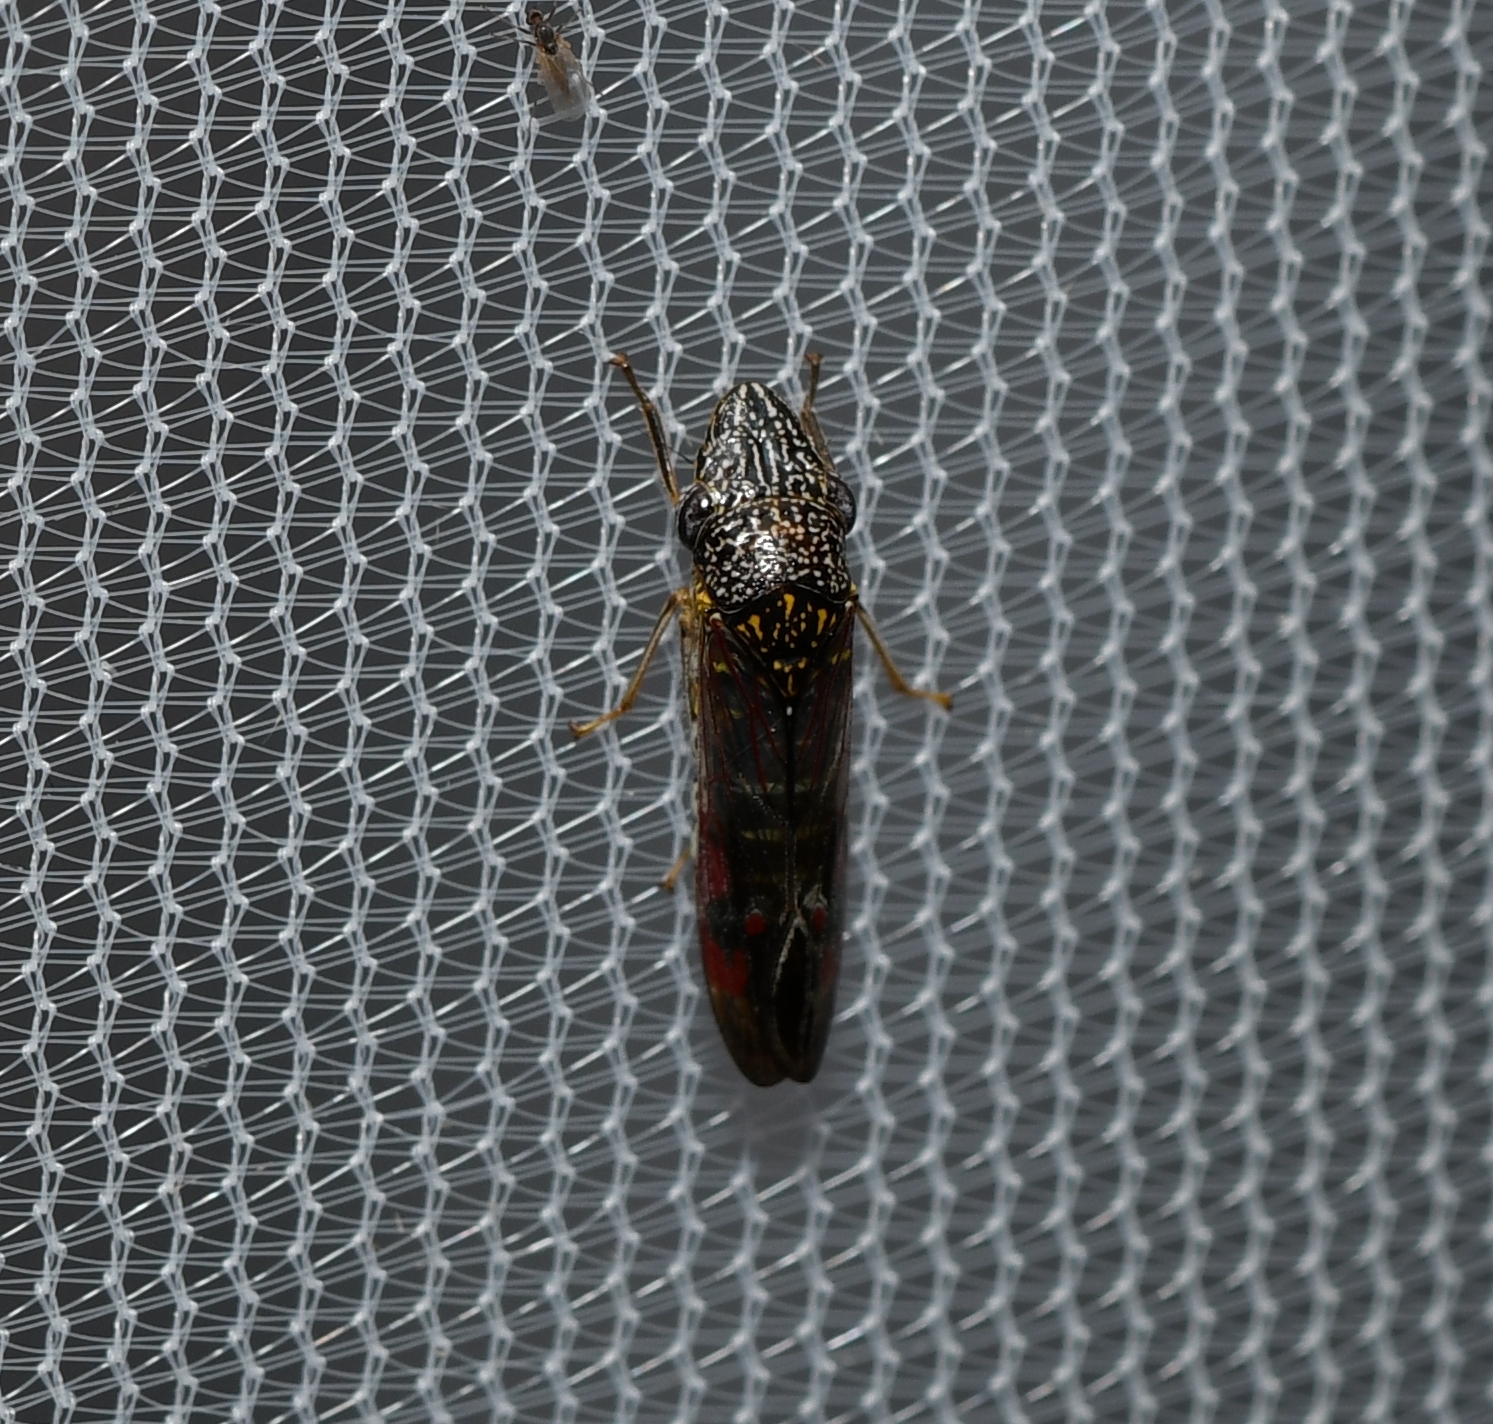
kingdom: Animalia
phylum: Arthropoda
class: Insecta
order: Hemiptera
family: Cicadellidae
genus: Homalodisca
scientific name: Homalodisca liturata
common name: Lacertate sharpshooter
